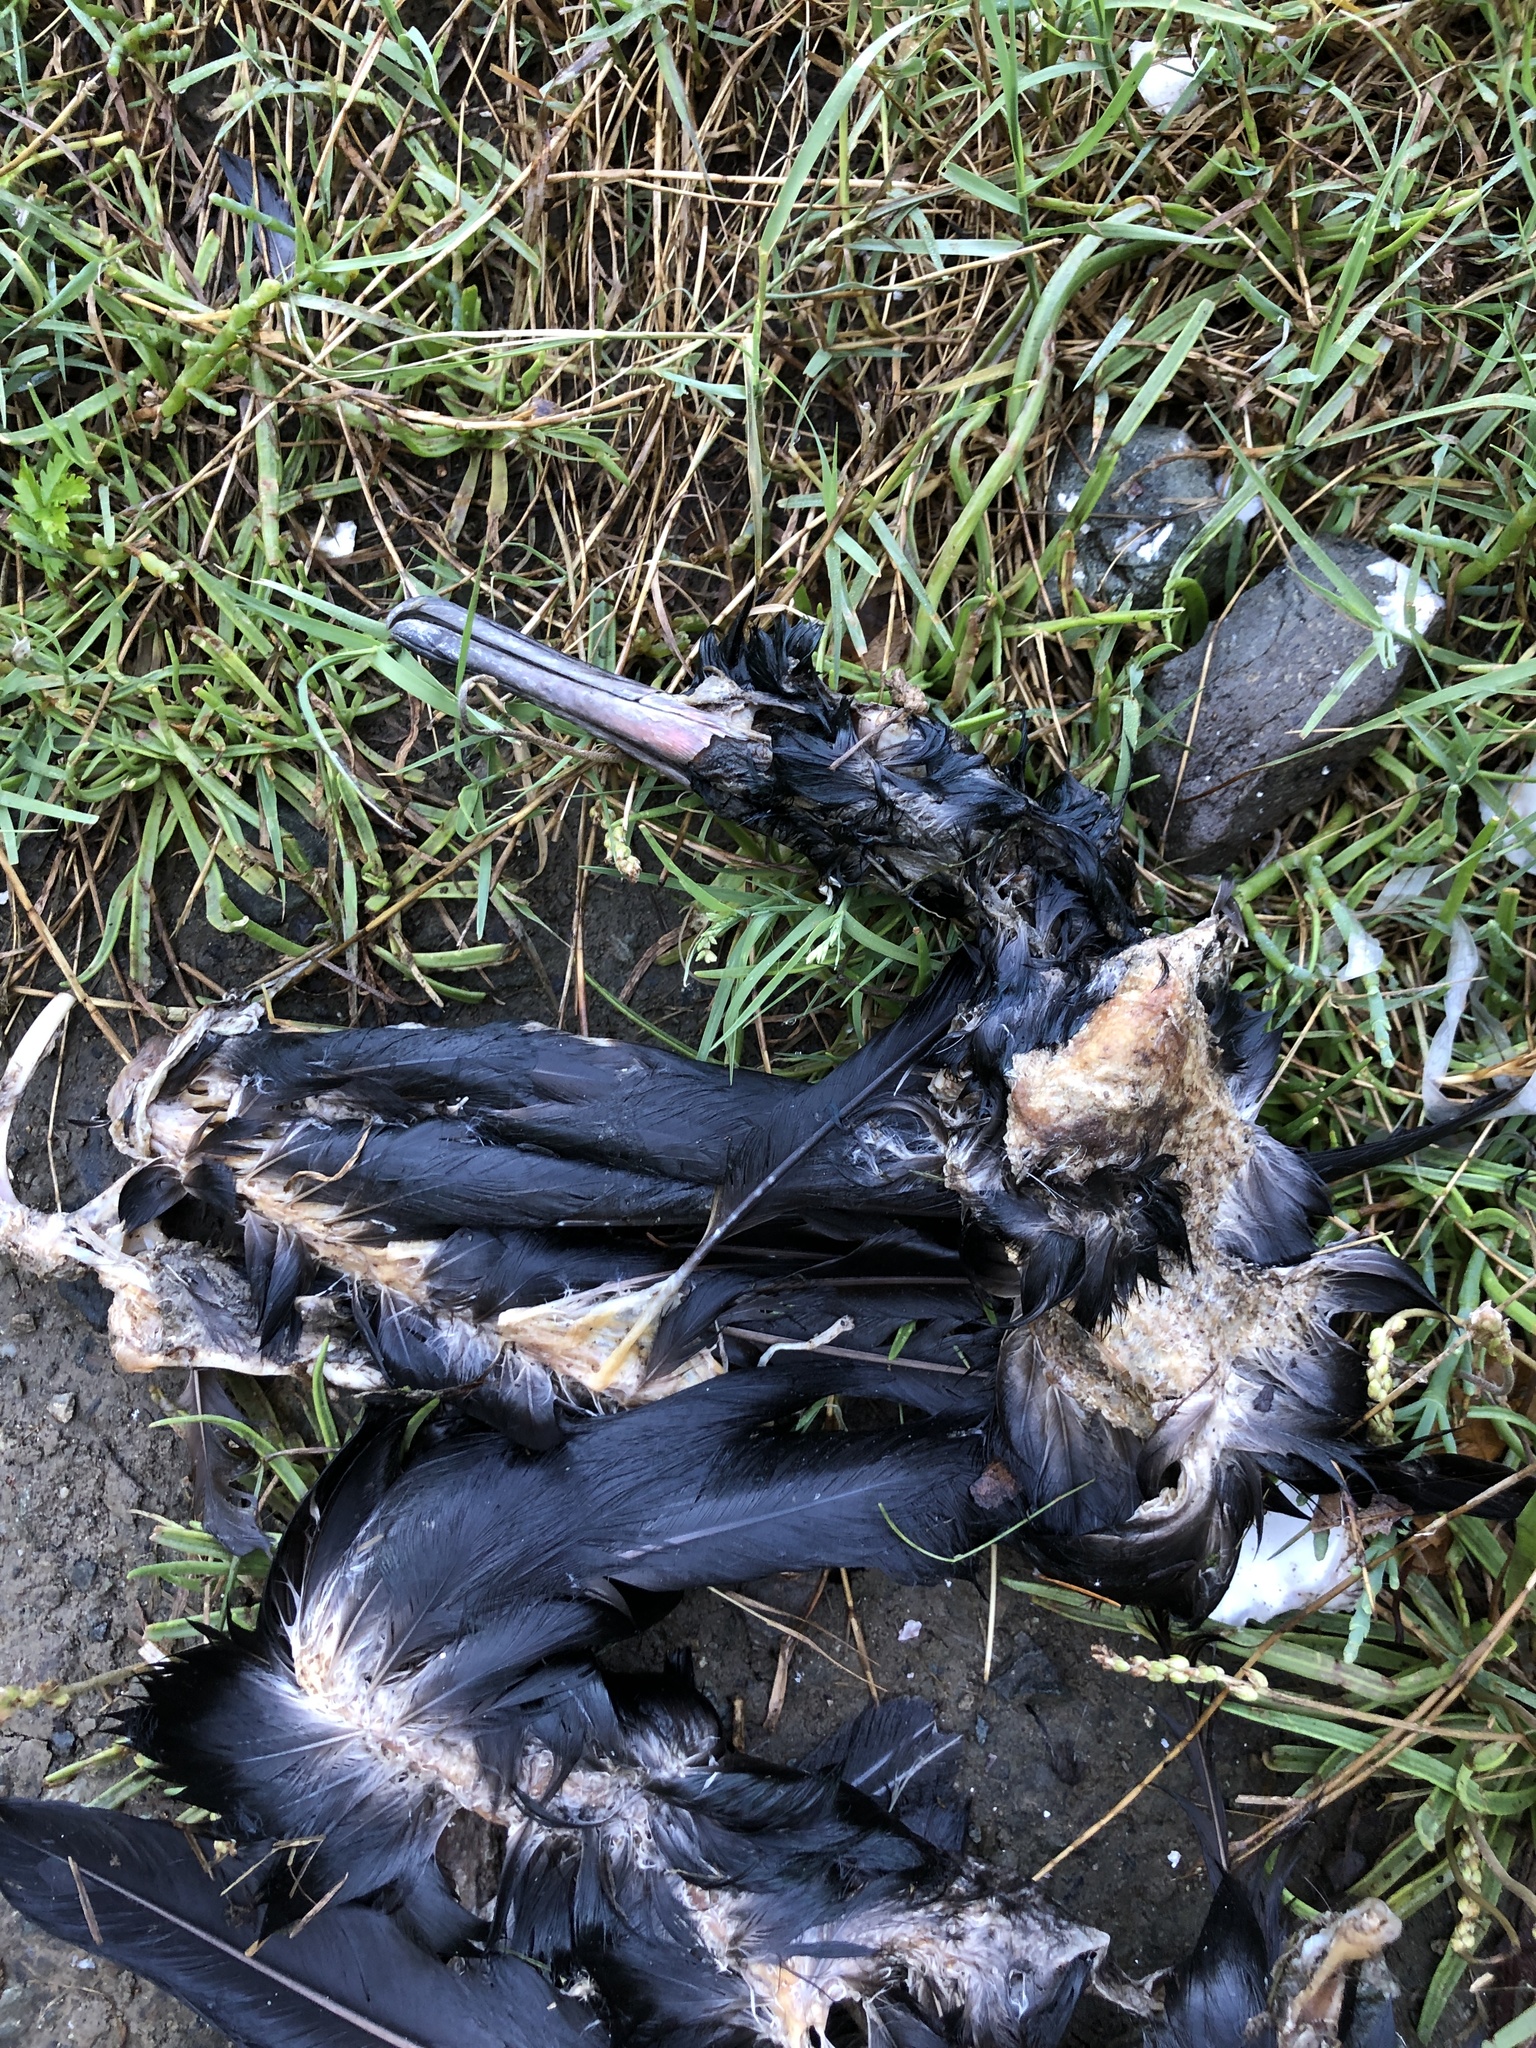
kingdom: Animalia
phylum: Chordata
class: Aves
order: Suliformes
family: Phalacrocoracidae
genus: Phalacrocorax
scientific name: Phalacrocorax pelagicus
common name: Pelagic cormorant
